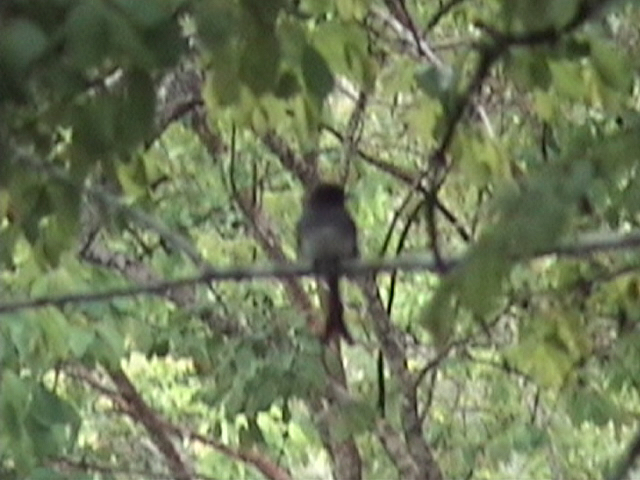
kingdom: Animalia
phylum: Chordata
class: Aves
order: Passeriformes
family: Dicruridae
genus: Dicrurus
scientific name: Dicrurus caerulescens
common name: White-bellied drongo
